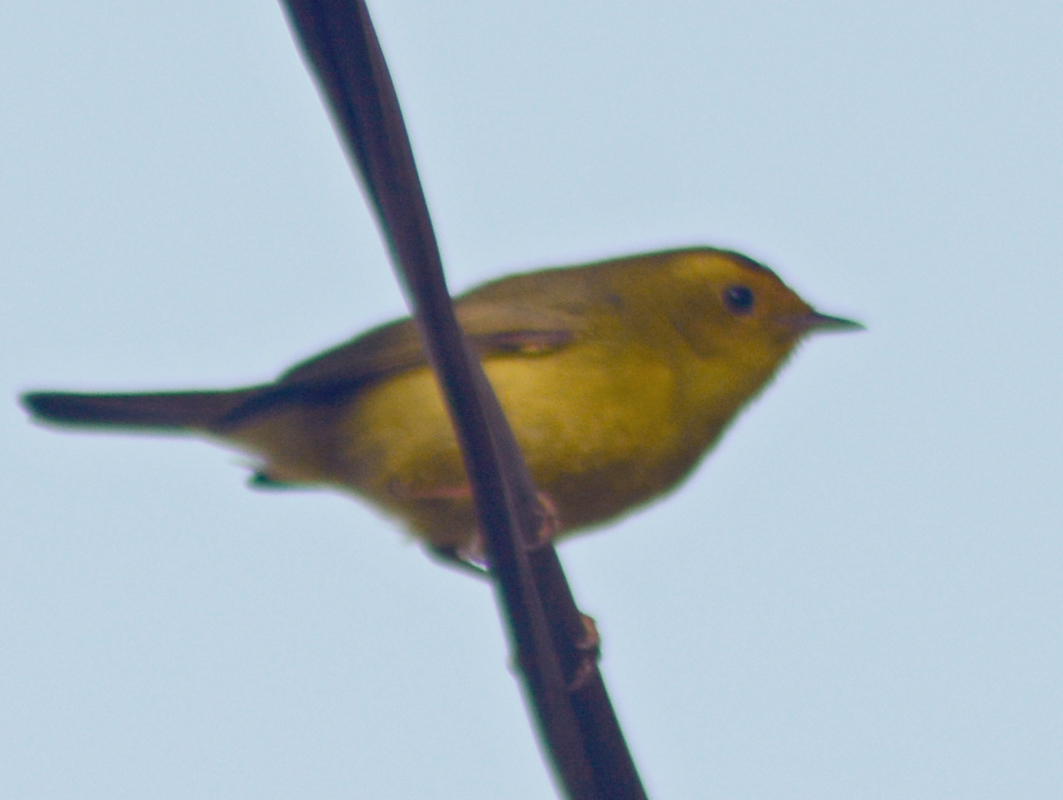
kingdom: Animalia
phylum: Chordata
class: Aves
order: Passeriformes
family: Parulidae
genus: Cardellina
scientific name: Cardellina pusilla
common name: Wilson's warbler
